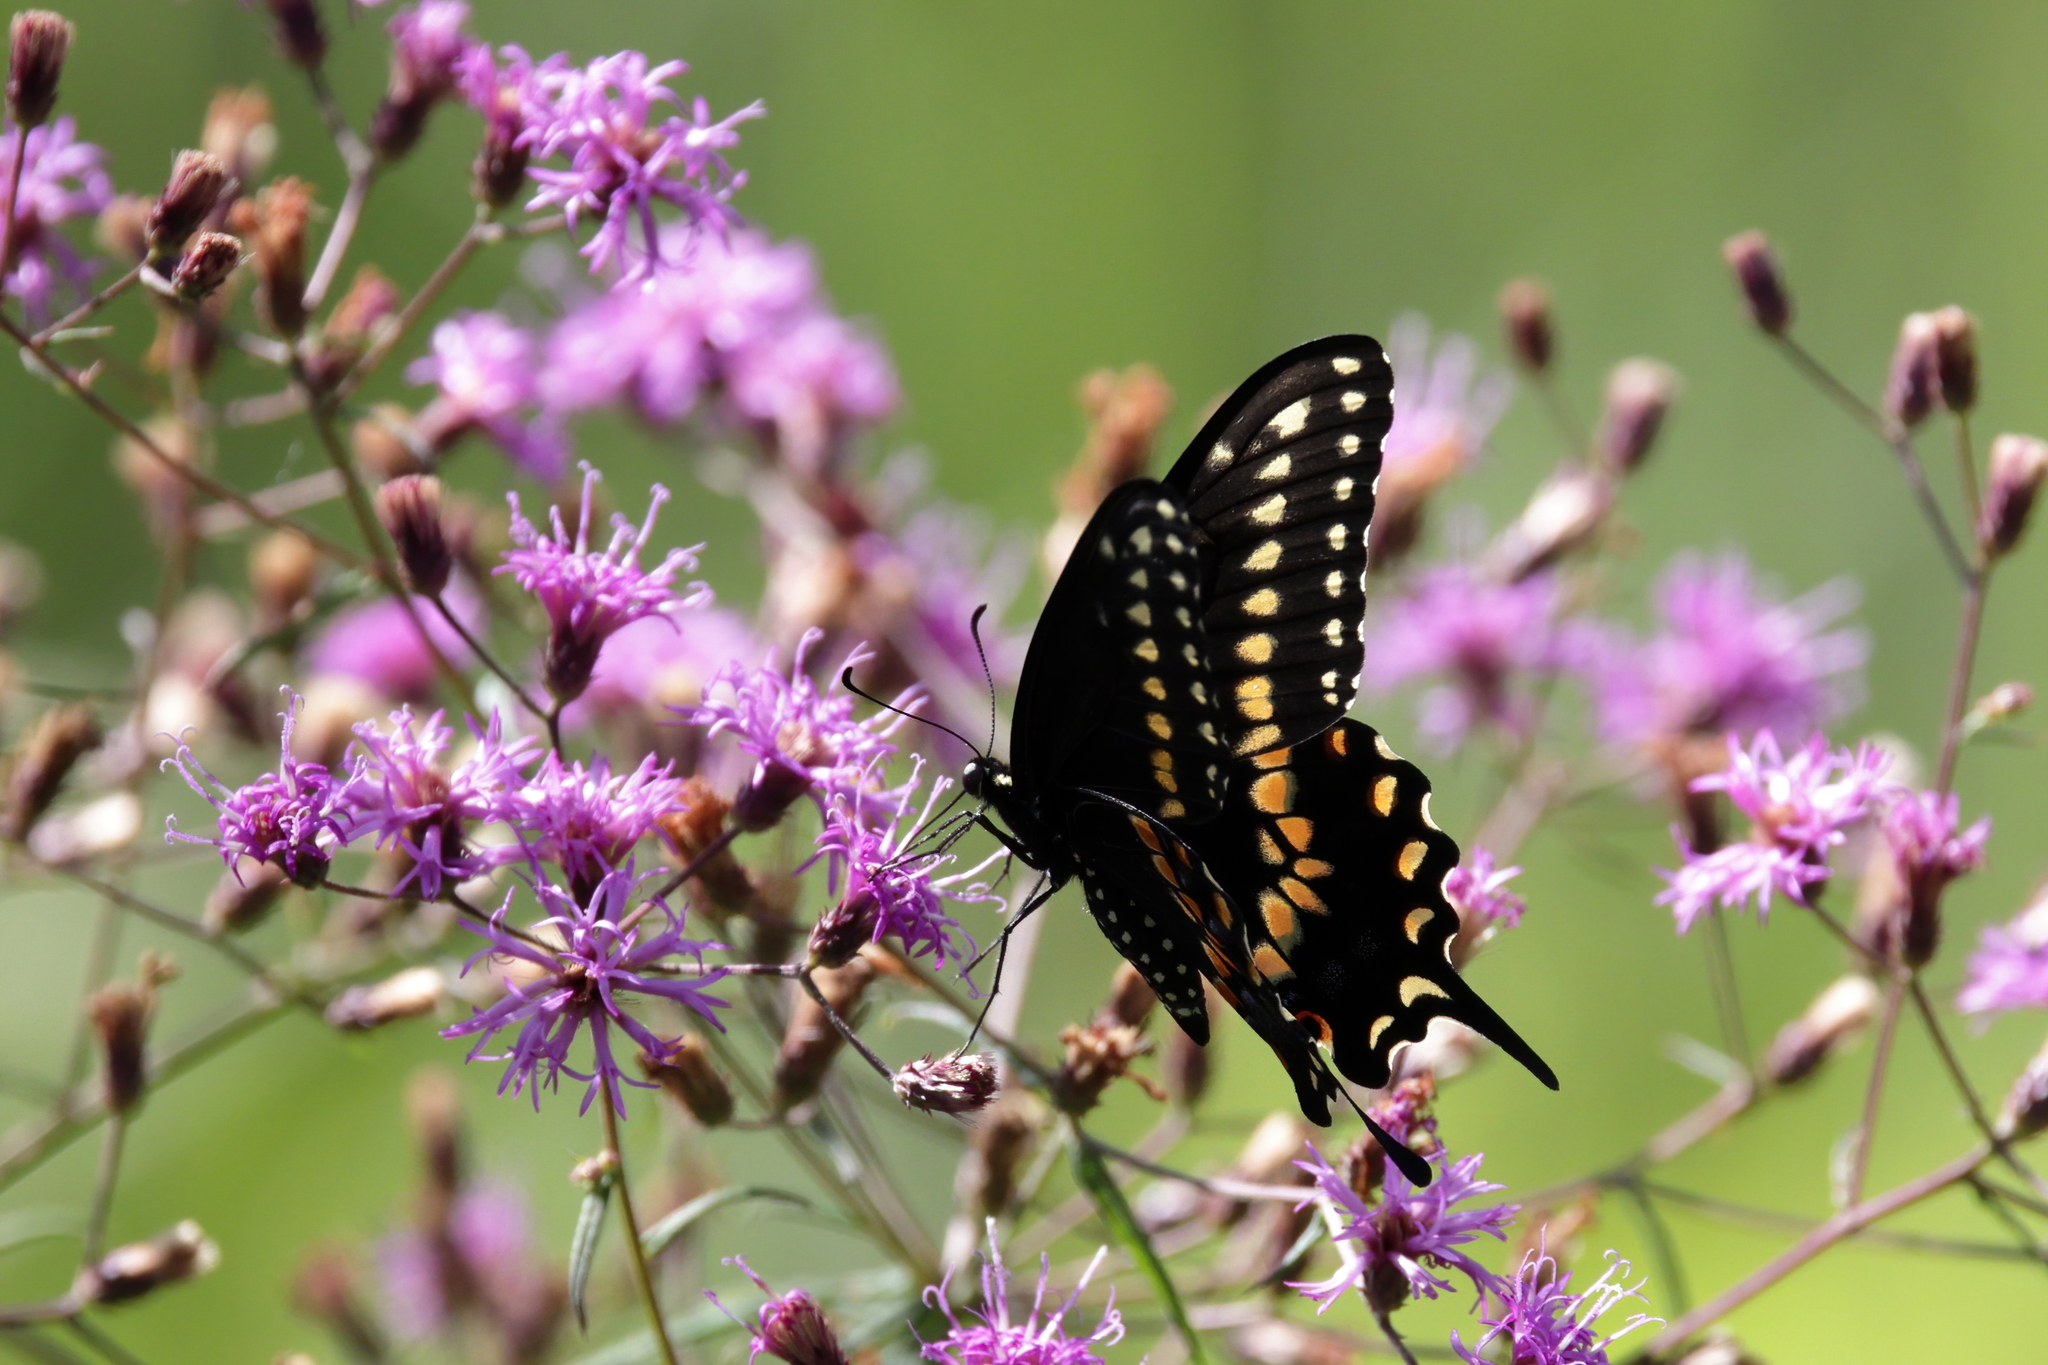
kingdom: Animalia
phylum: Arthropoda
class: Insecta
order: Lepidoptera
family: Papilionidae
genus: Papilio
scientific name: Papilio polyxenes
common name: Black swallowtail
